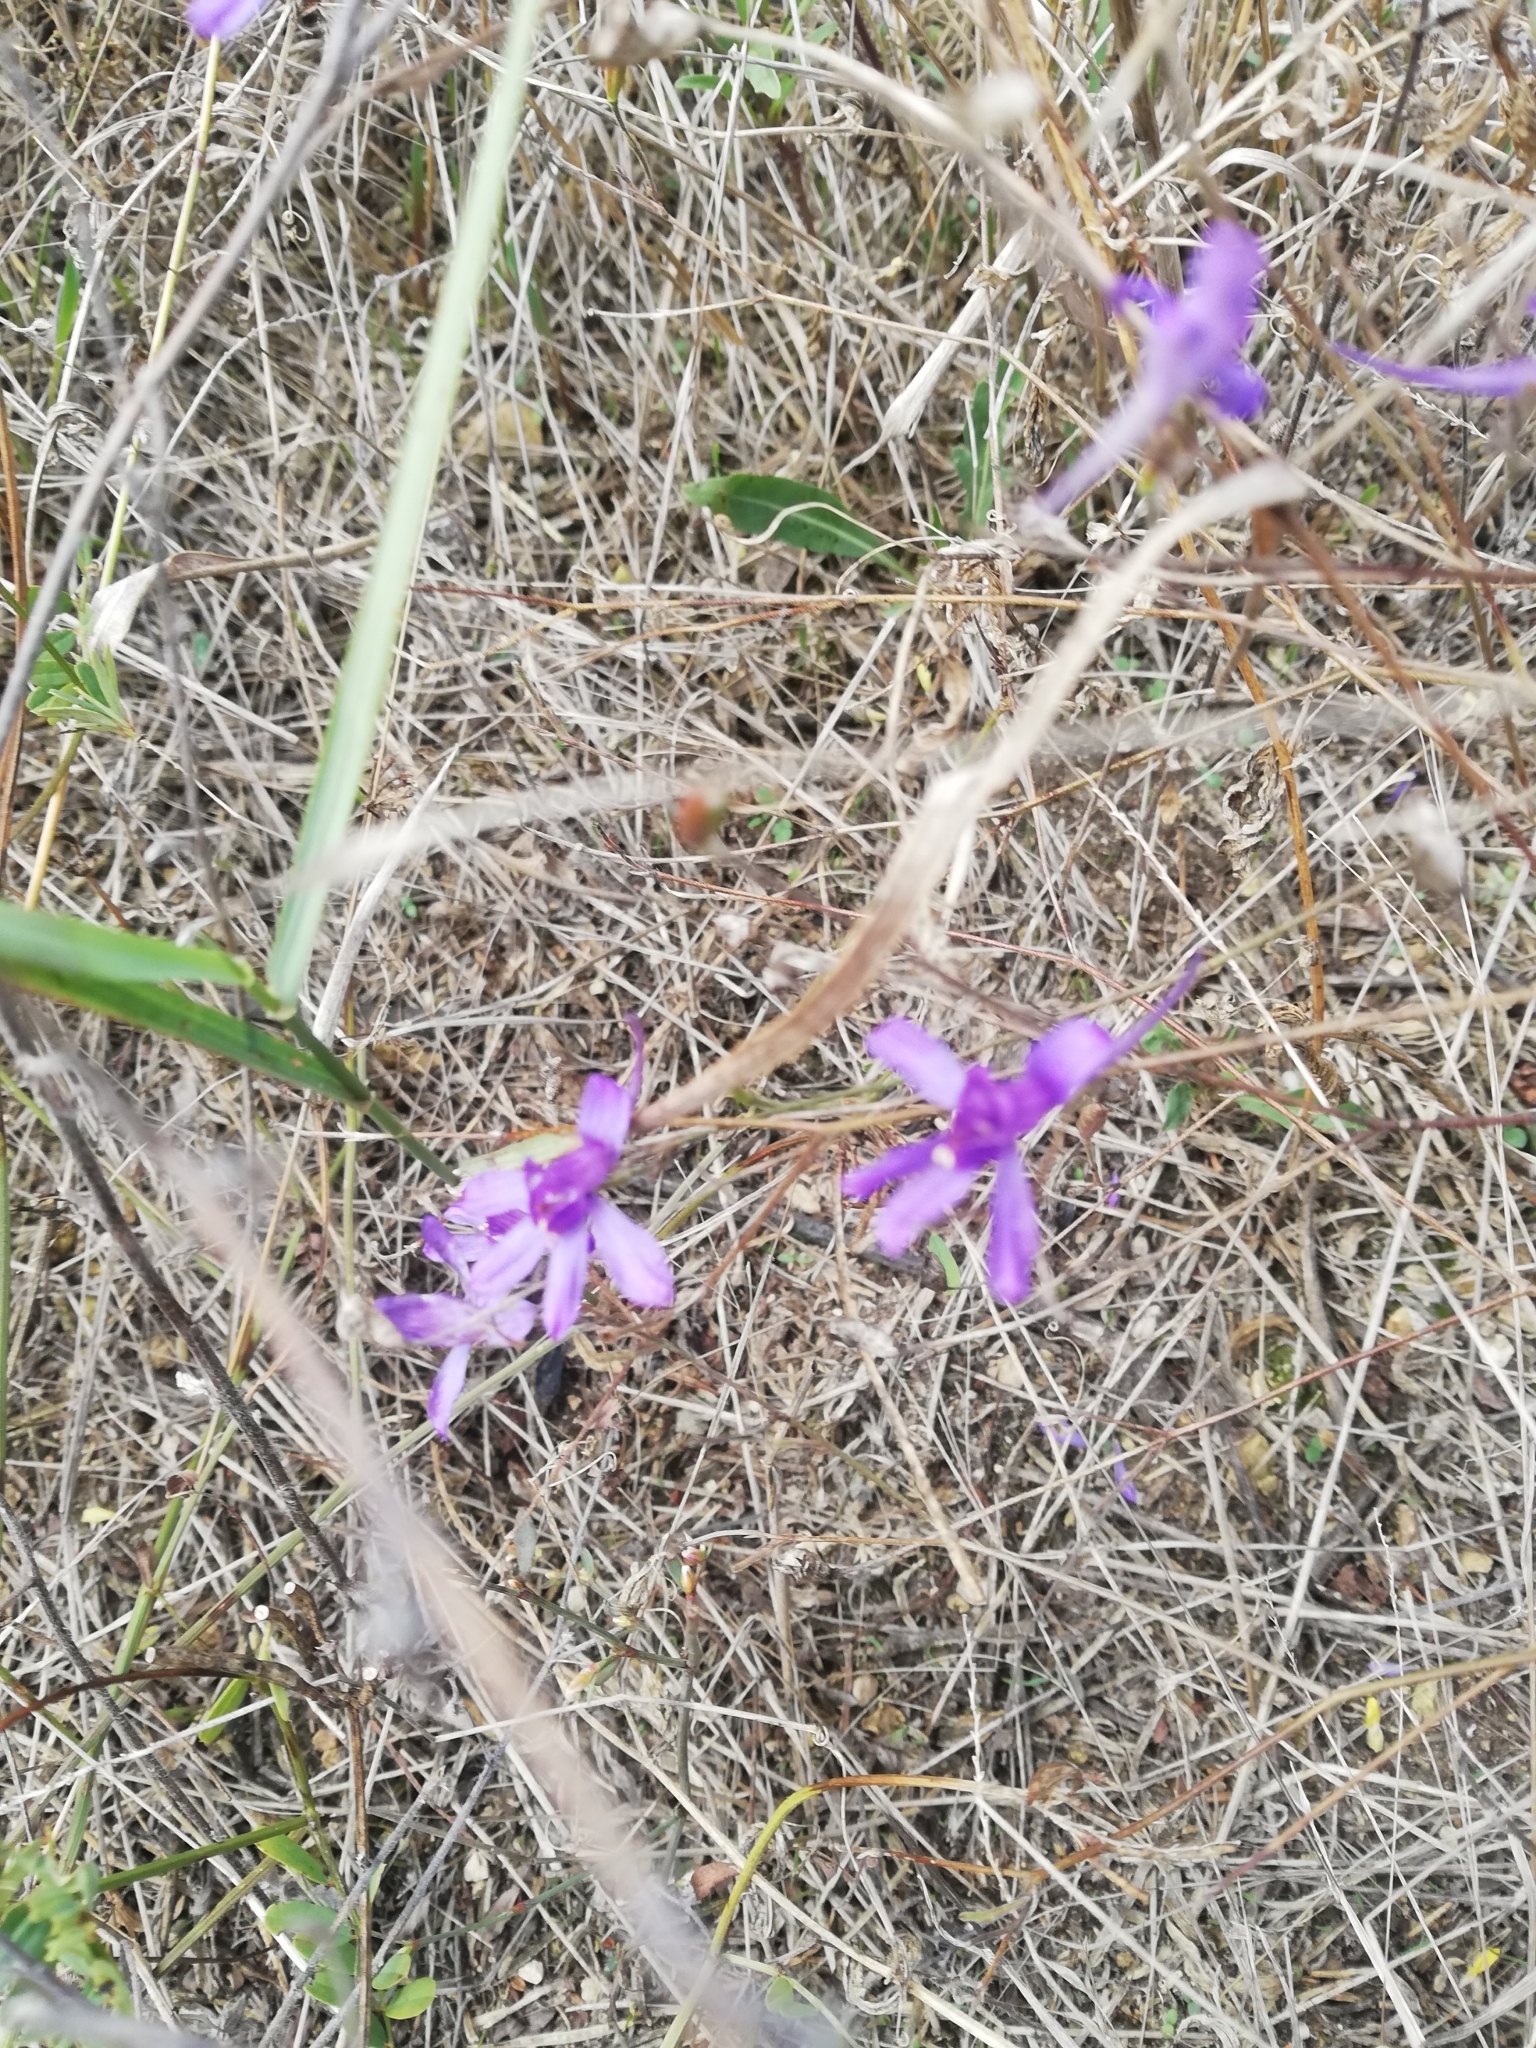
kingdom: Plantae
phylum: Tracheophyta
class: Magnoliopsida
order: Ranunculales
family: Ranunculaceae
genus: Delphinium
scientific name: Delphinium consolida
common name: Branching larkspur
